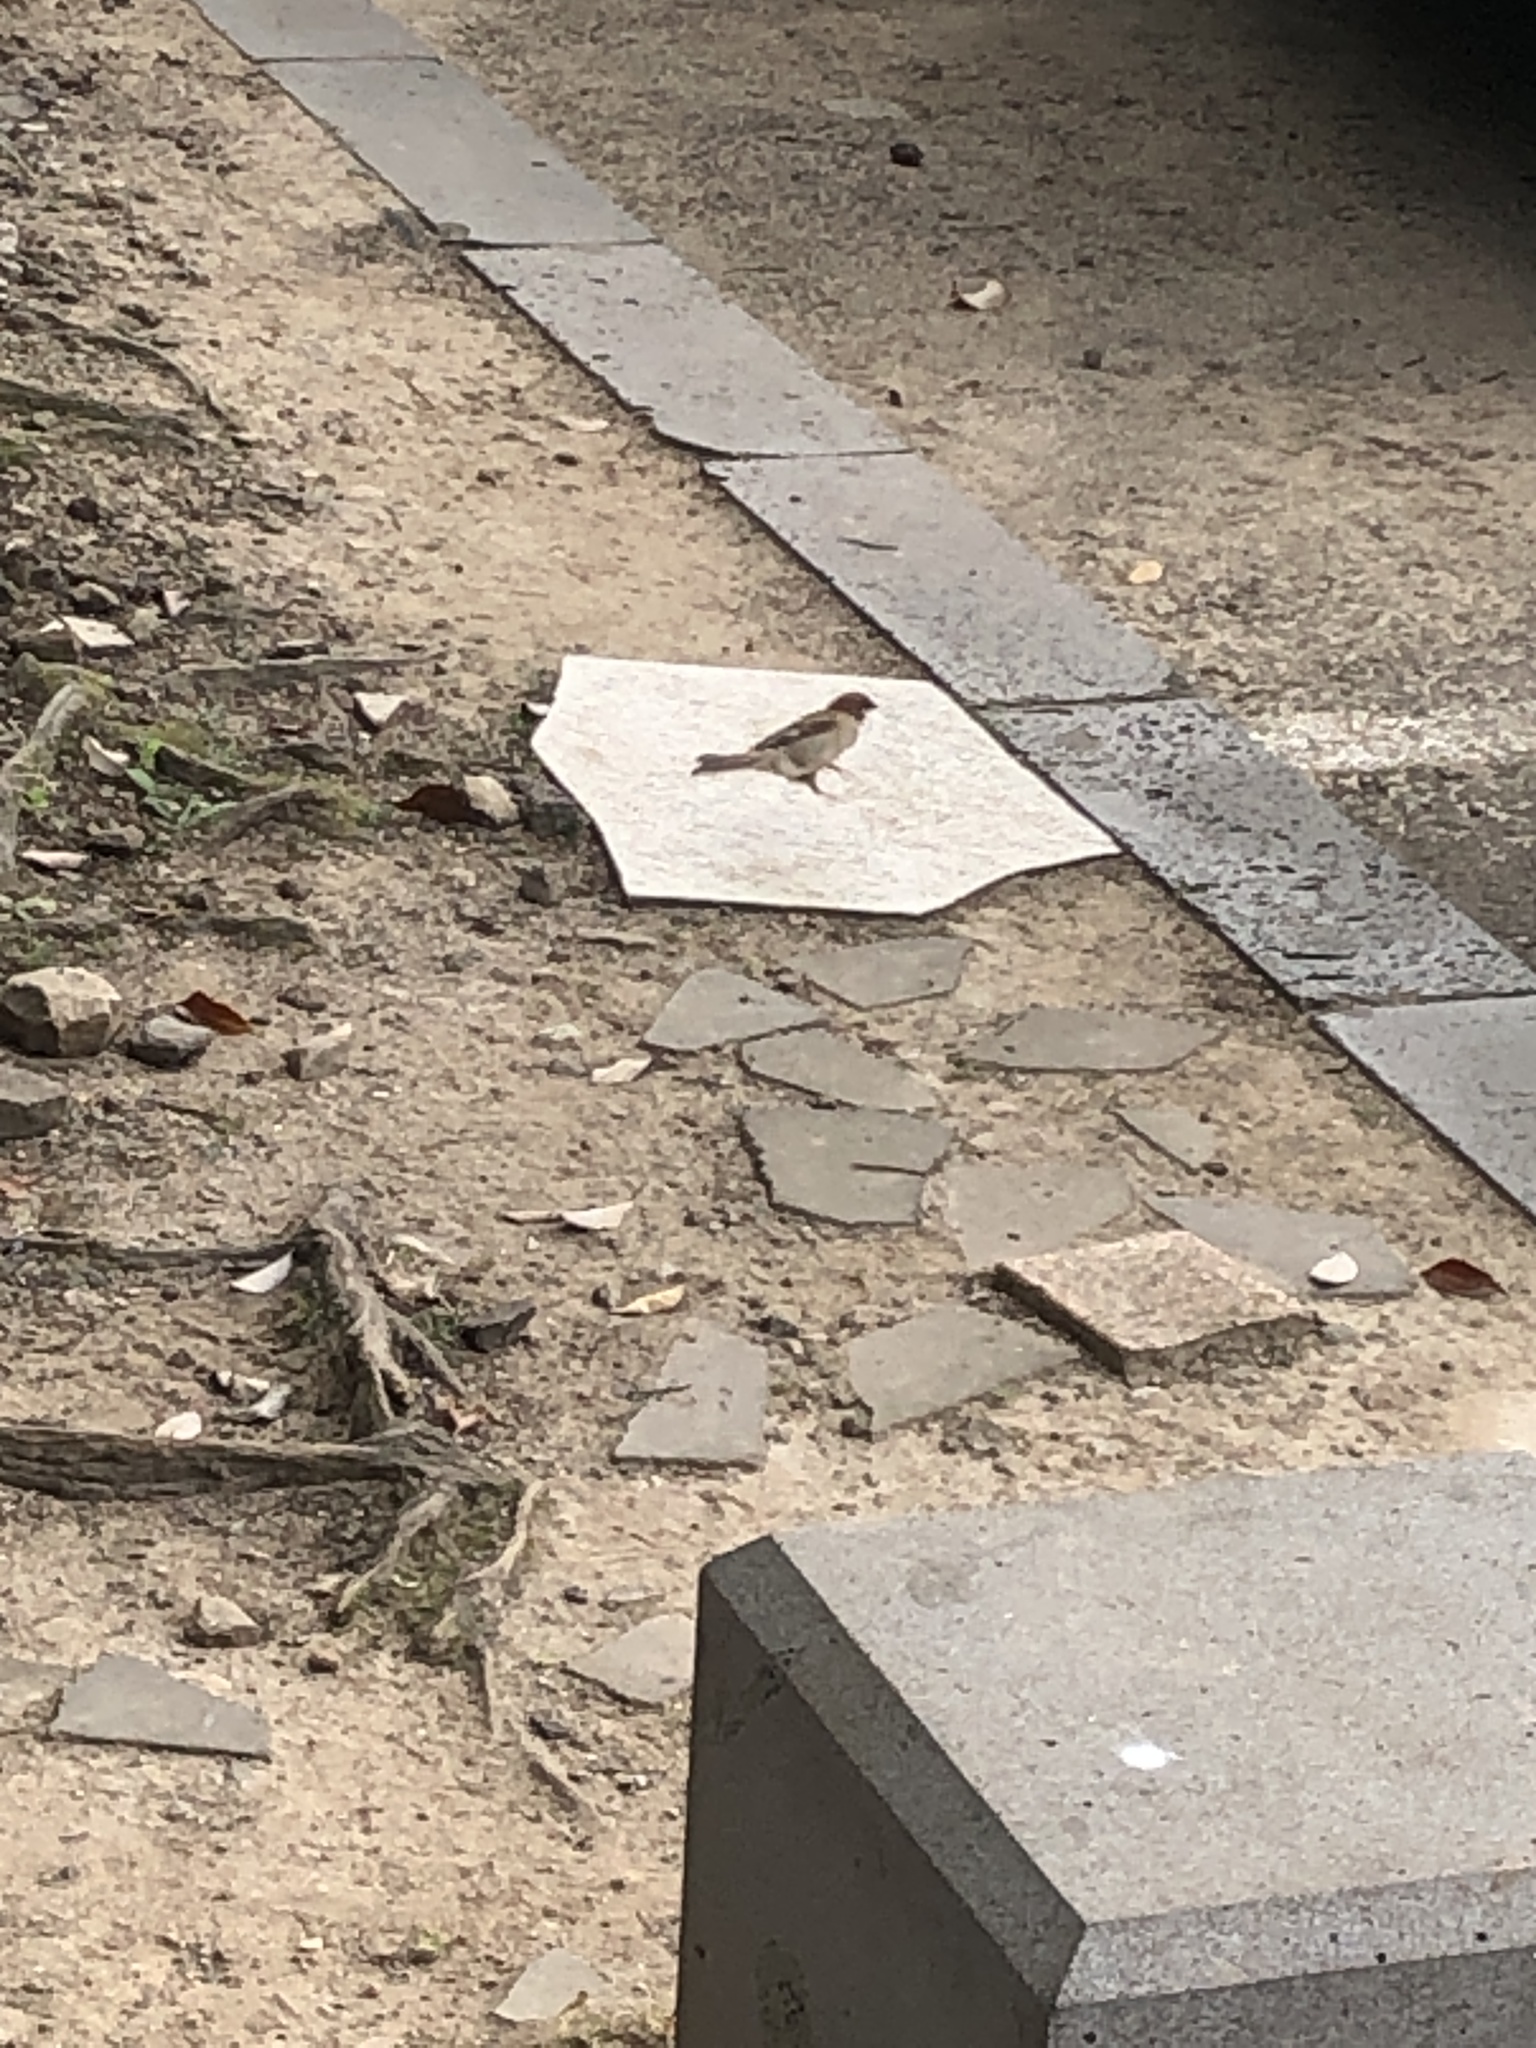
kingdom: Animalia
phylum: Chordata
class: Aves
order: Passeriformes
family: Passeridae
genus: Passer
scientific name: Passer montanus
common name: Eurasian tree sparrow
